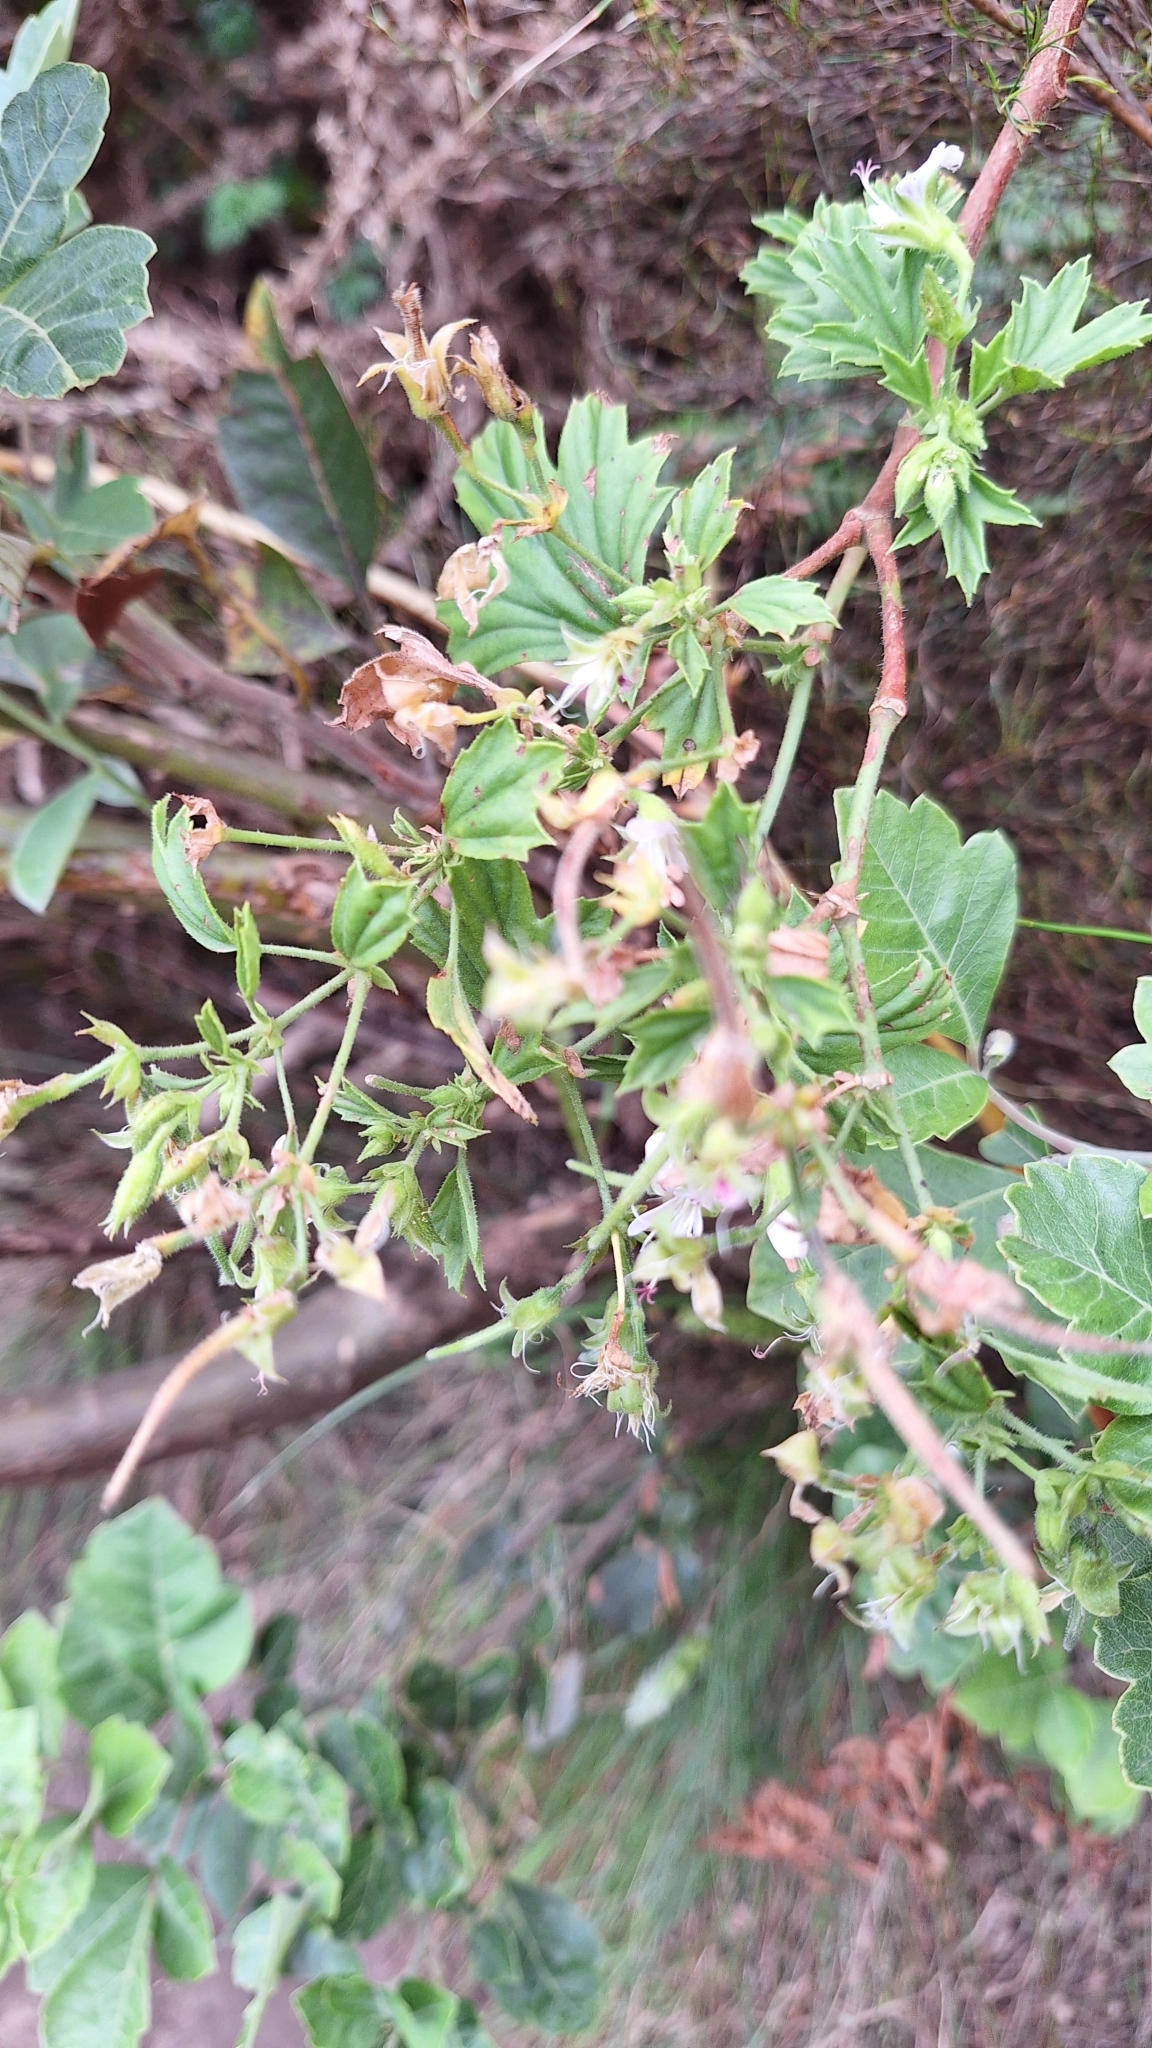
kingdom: Plantae
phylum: Tracheophyta
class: Magnoliopsida
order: Geraniales
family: Geraniaceae
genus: Pelargonium
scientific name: Pelargonium scabrum
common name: Apricot geranium
